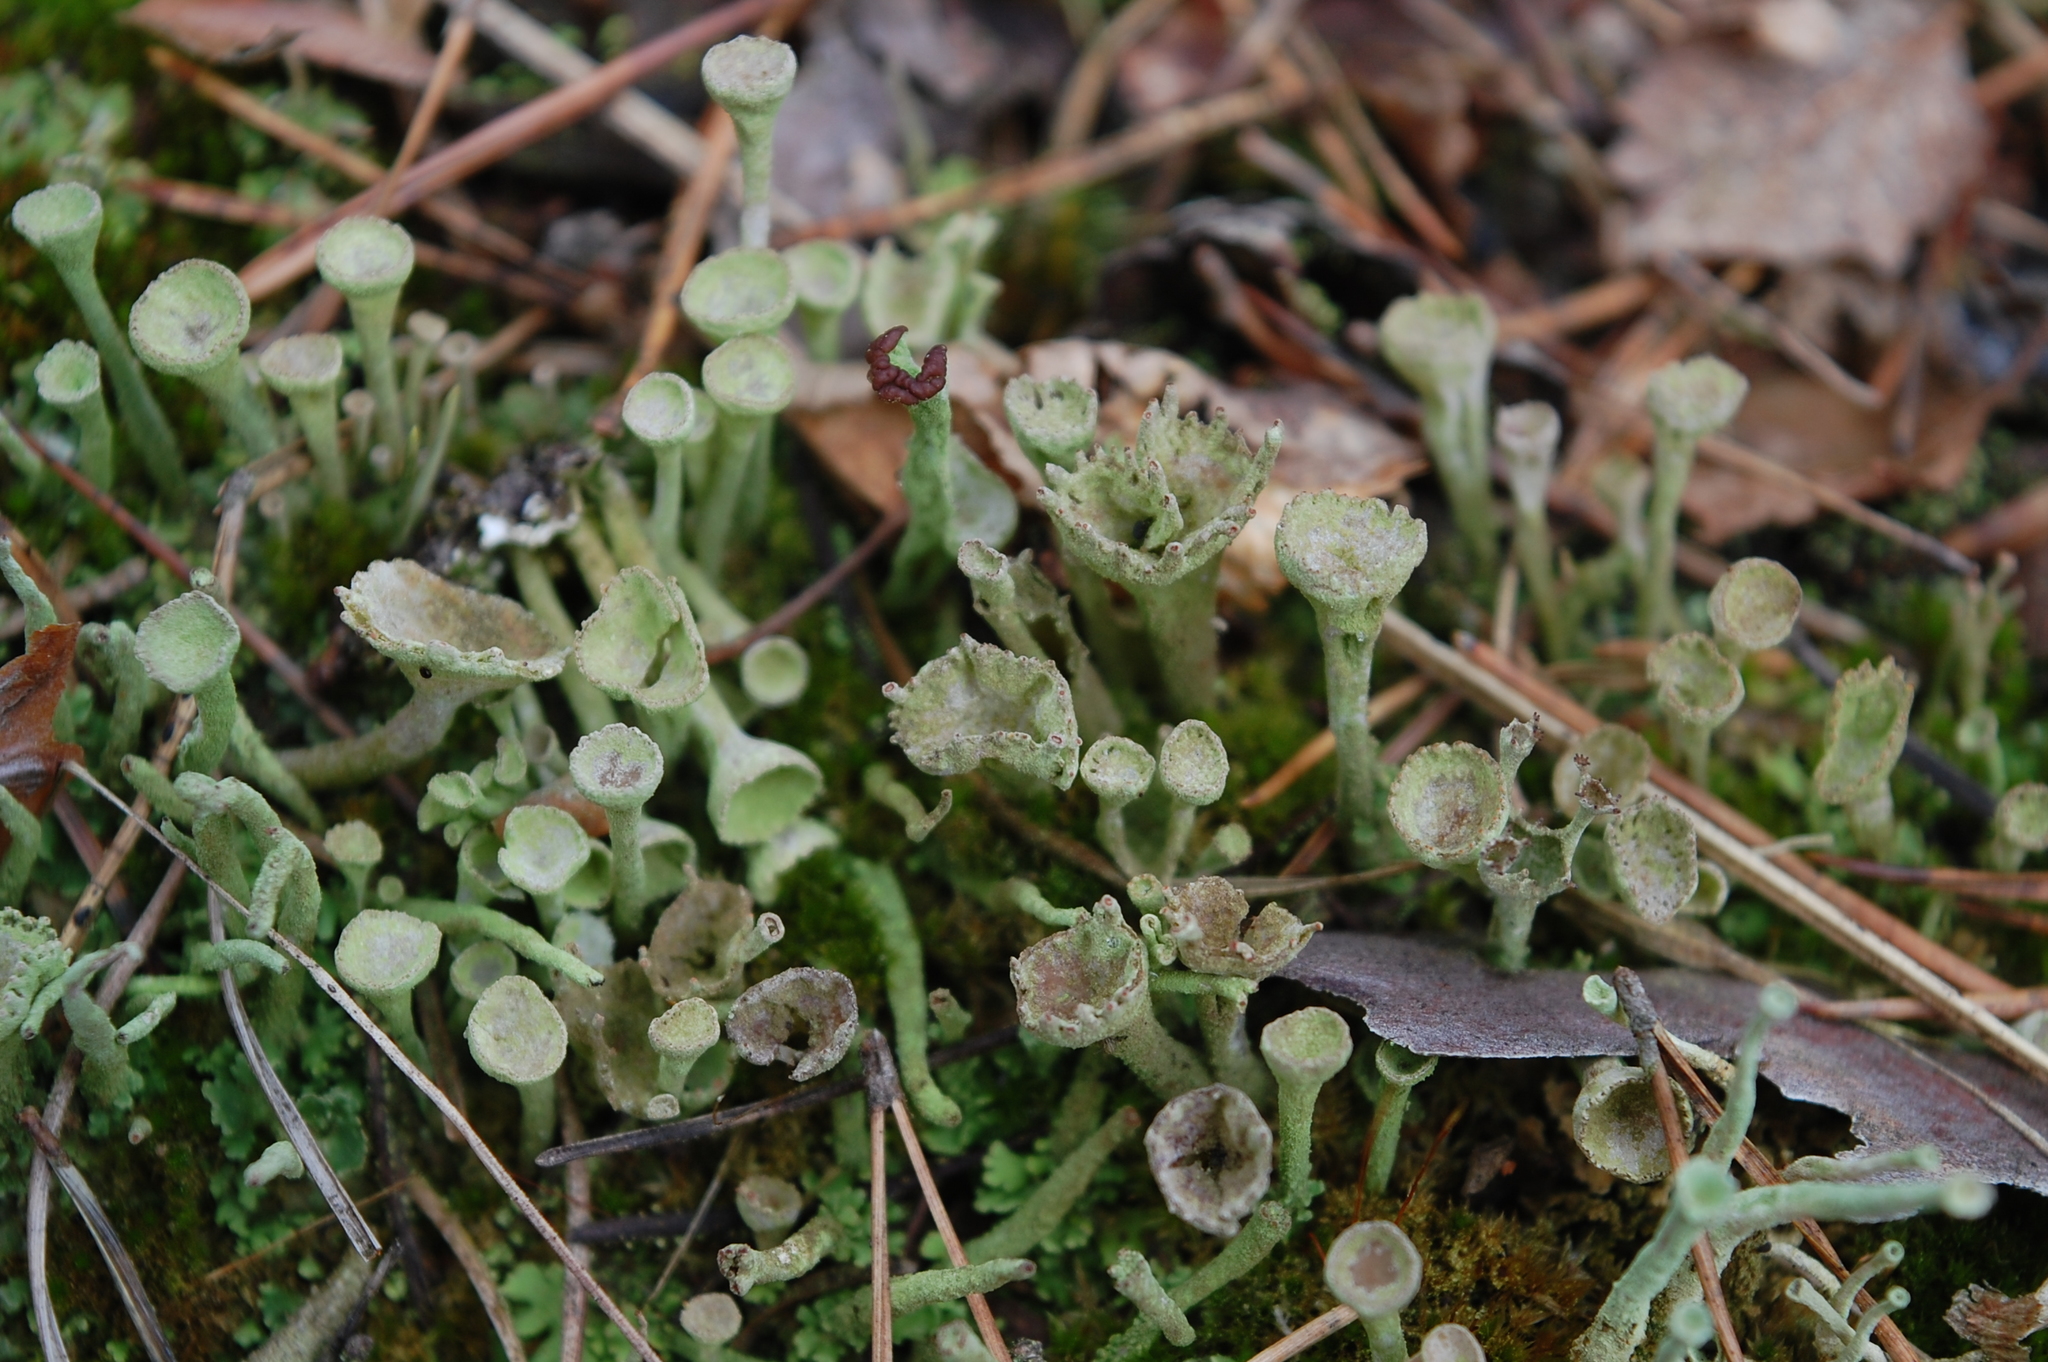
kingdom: Fungi
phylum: Ascomycota
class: Lecanoromycetes
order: Lecanorales
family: Cladoniaceae
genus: Cladonia
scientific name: Cladonia fimbriata
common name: Powdered trumpet lichen
